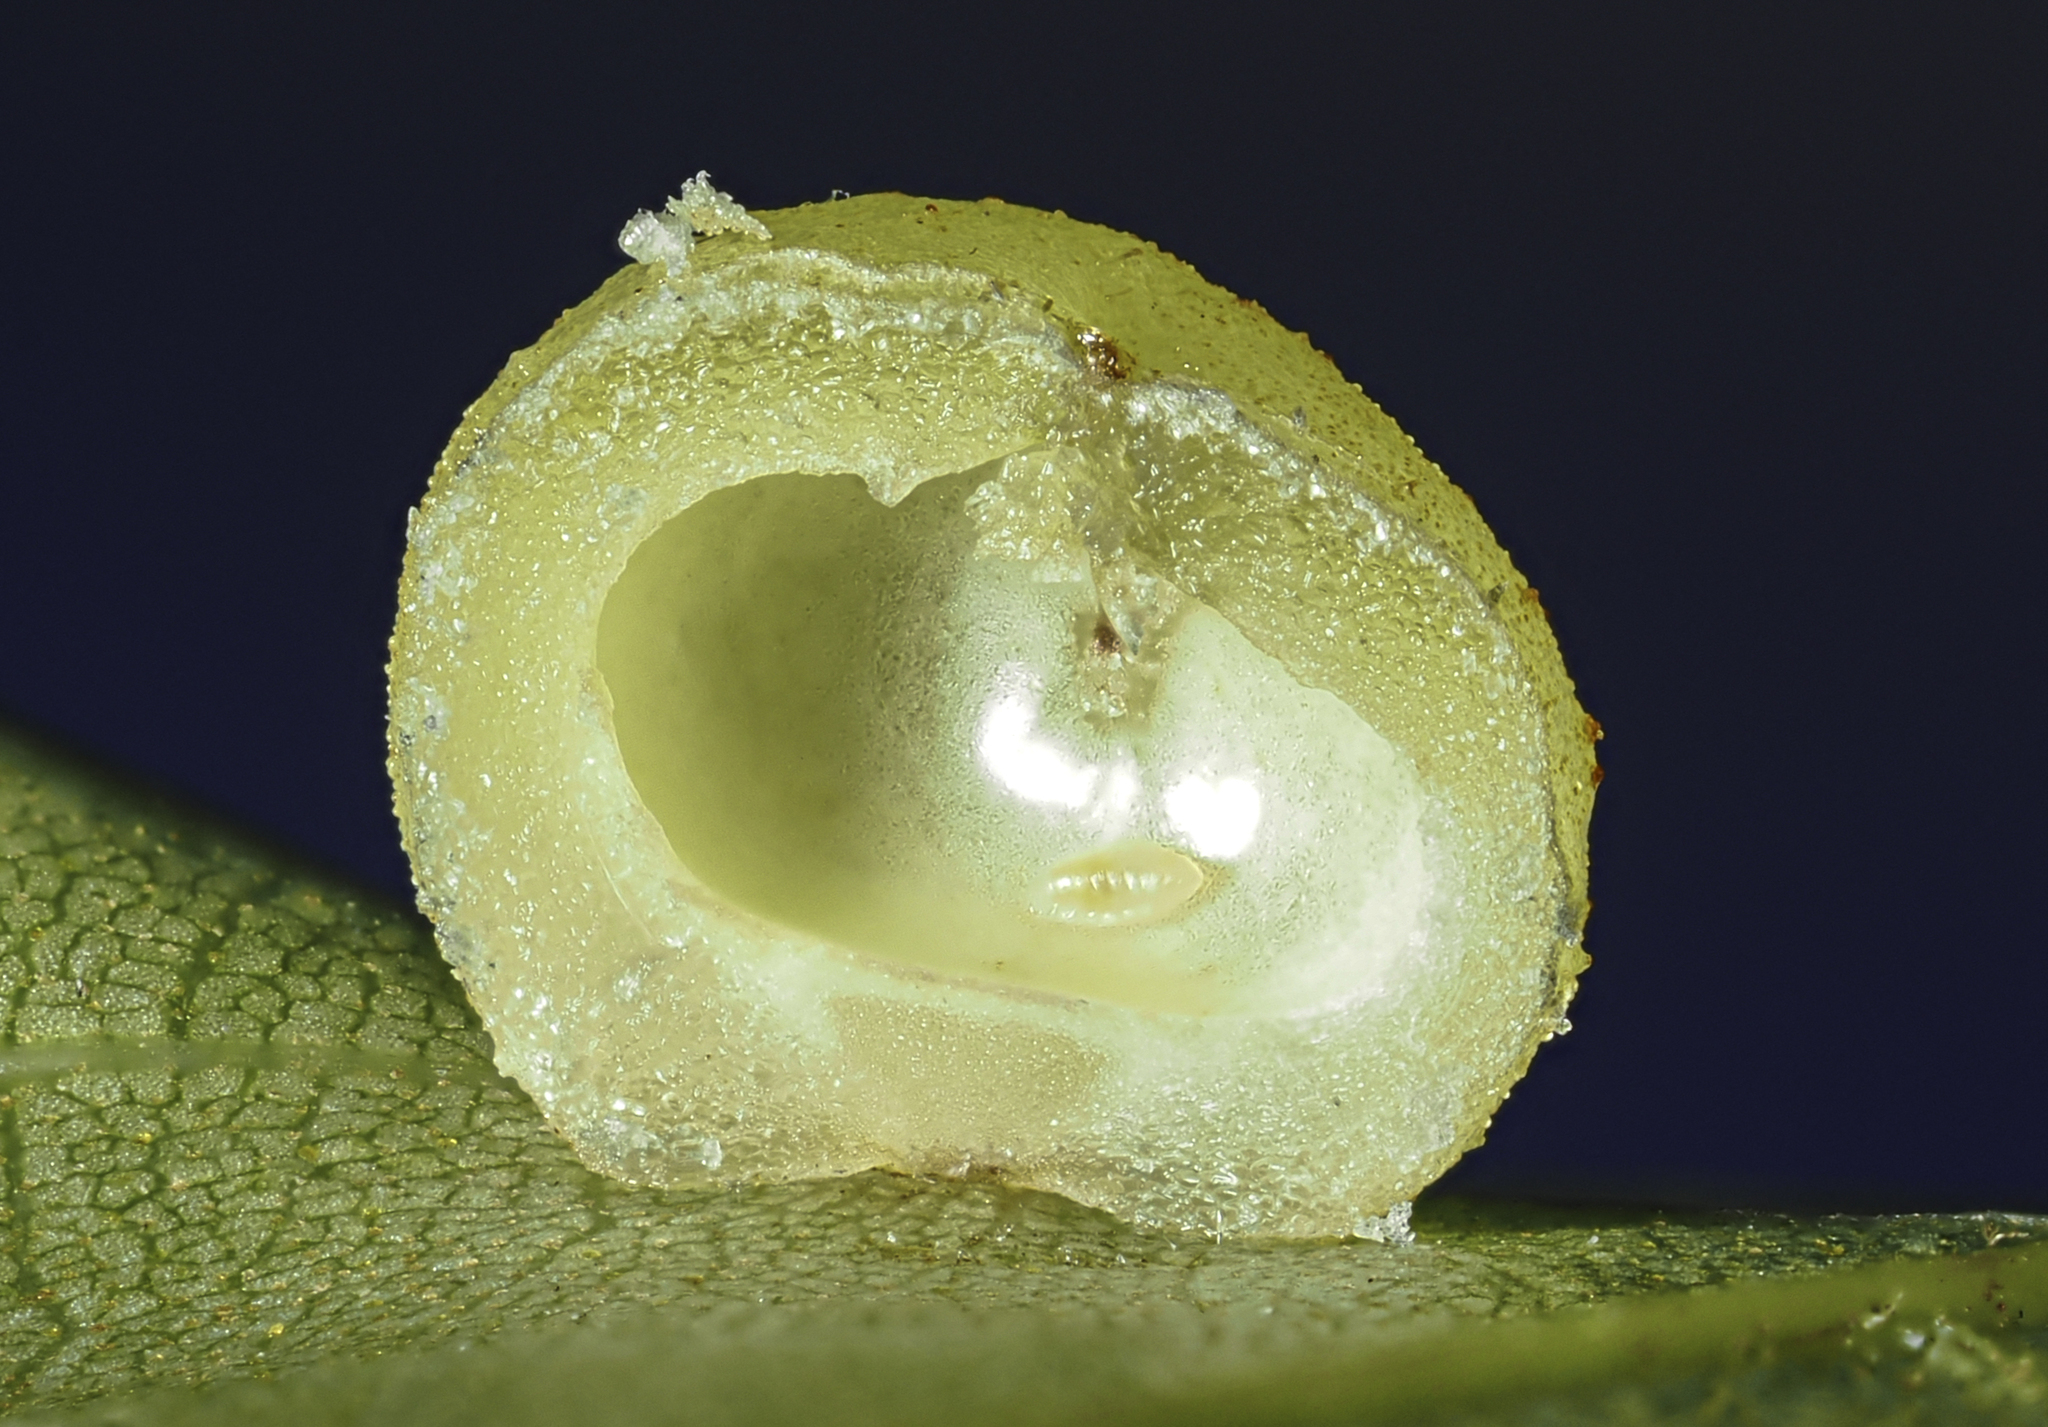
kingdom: Animalia
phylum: Arthropoda
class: Insecta
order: Diptera
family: Cecidomyiidae
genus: Caryomyia
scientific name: Caryomyia tuberculata
